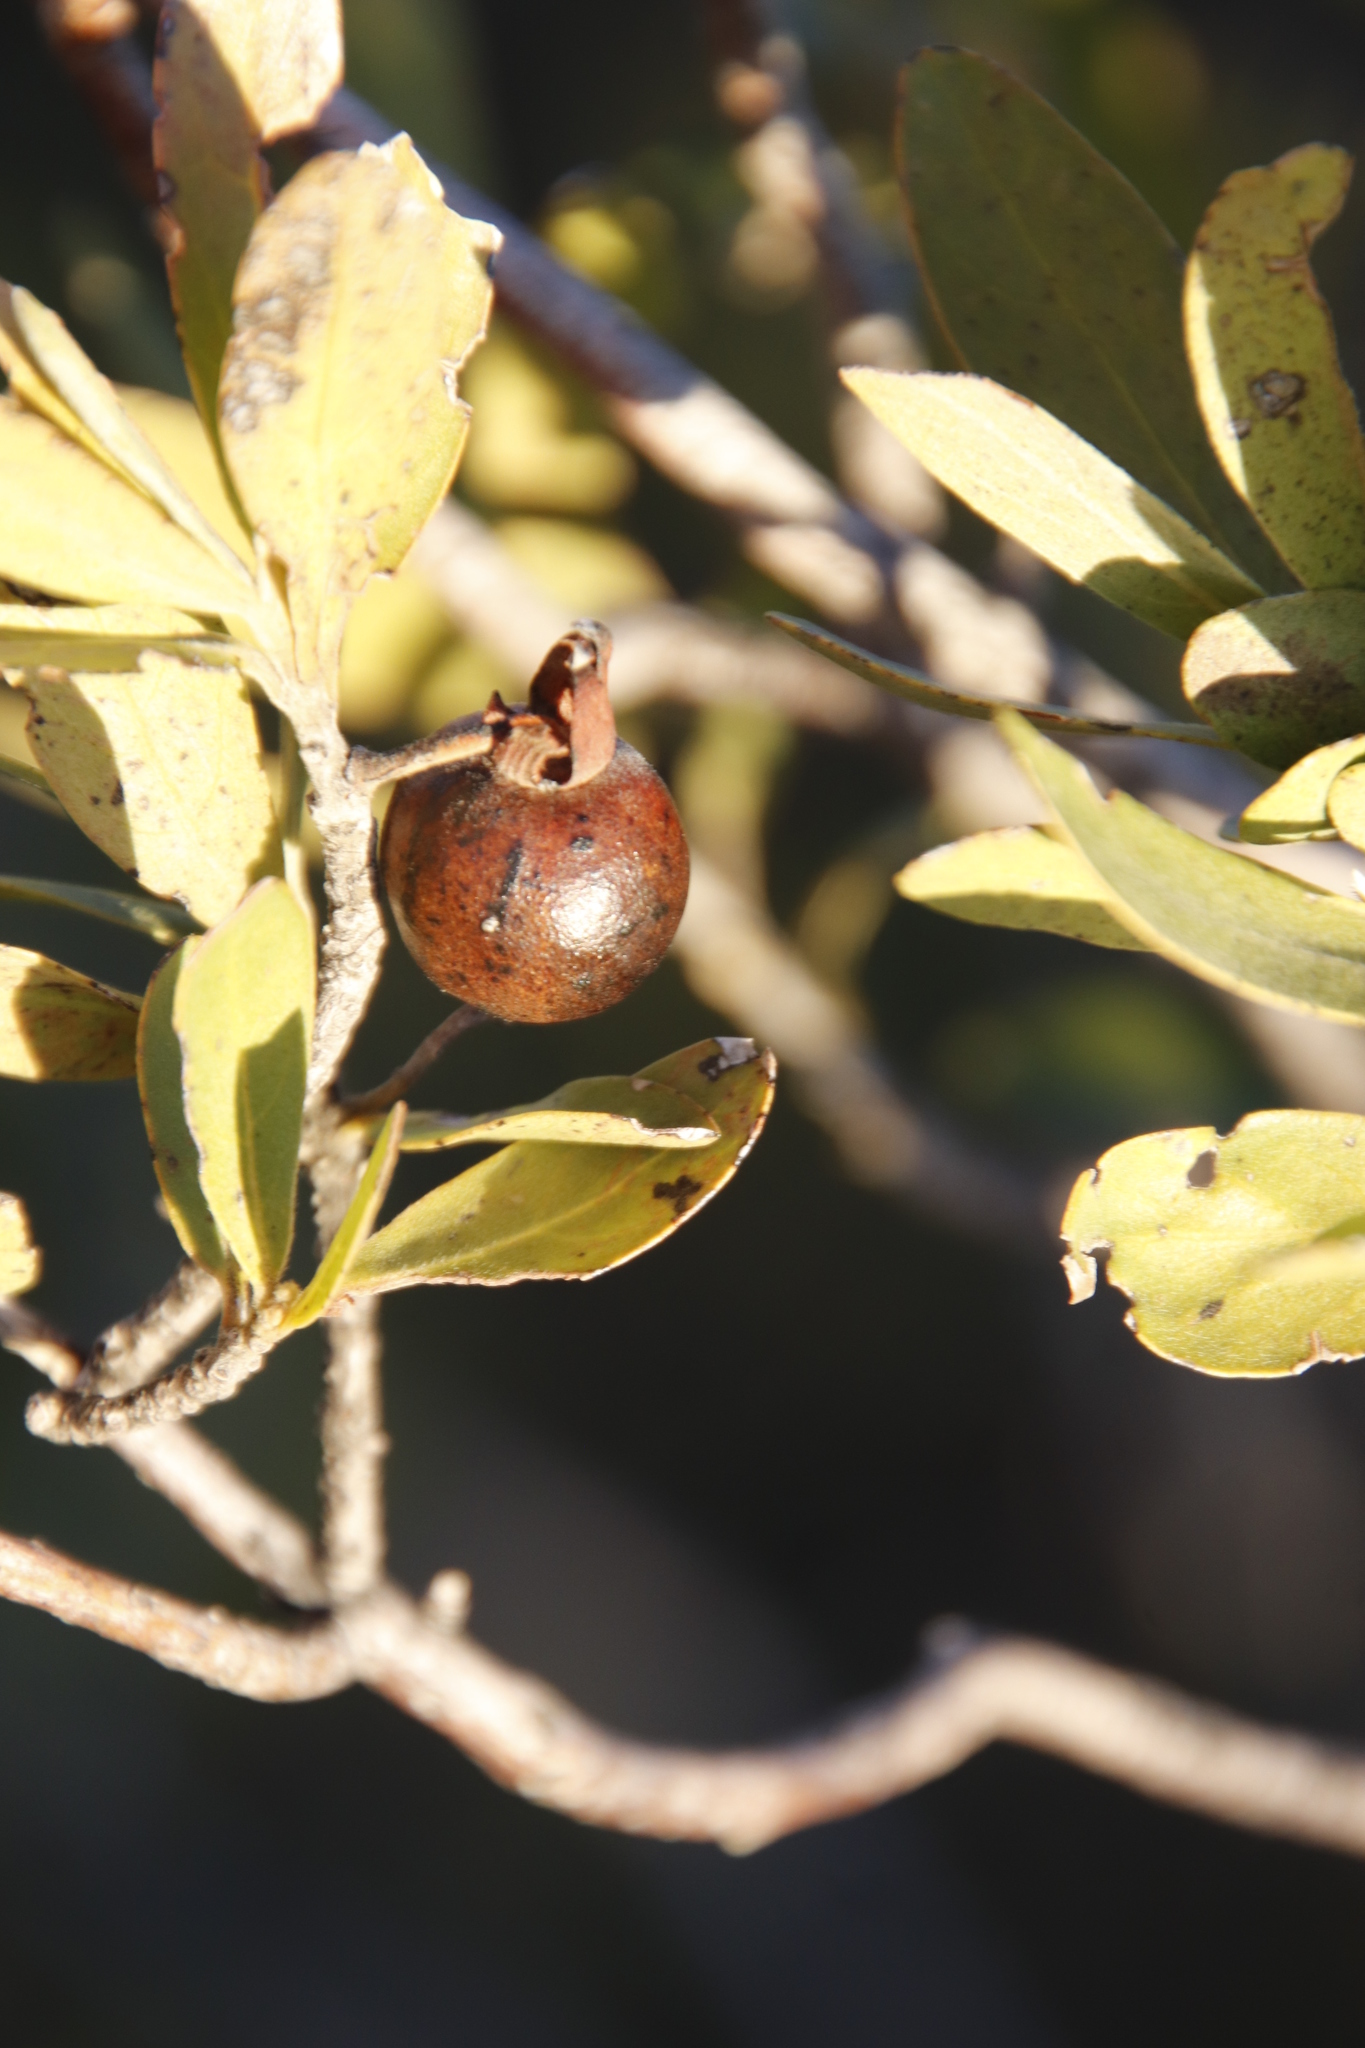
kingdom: Plantae
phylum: Tracheophyta
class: Magnoliopsida
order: Ericales
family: Ebenaceae
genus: Diospyros
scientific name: Diospyros lycioides
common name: Red star apple
